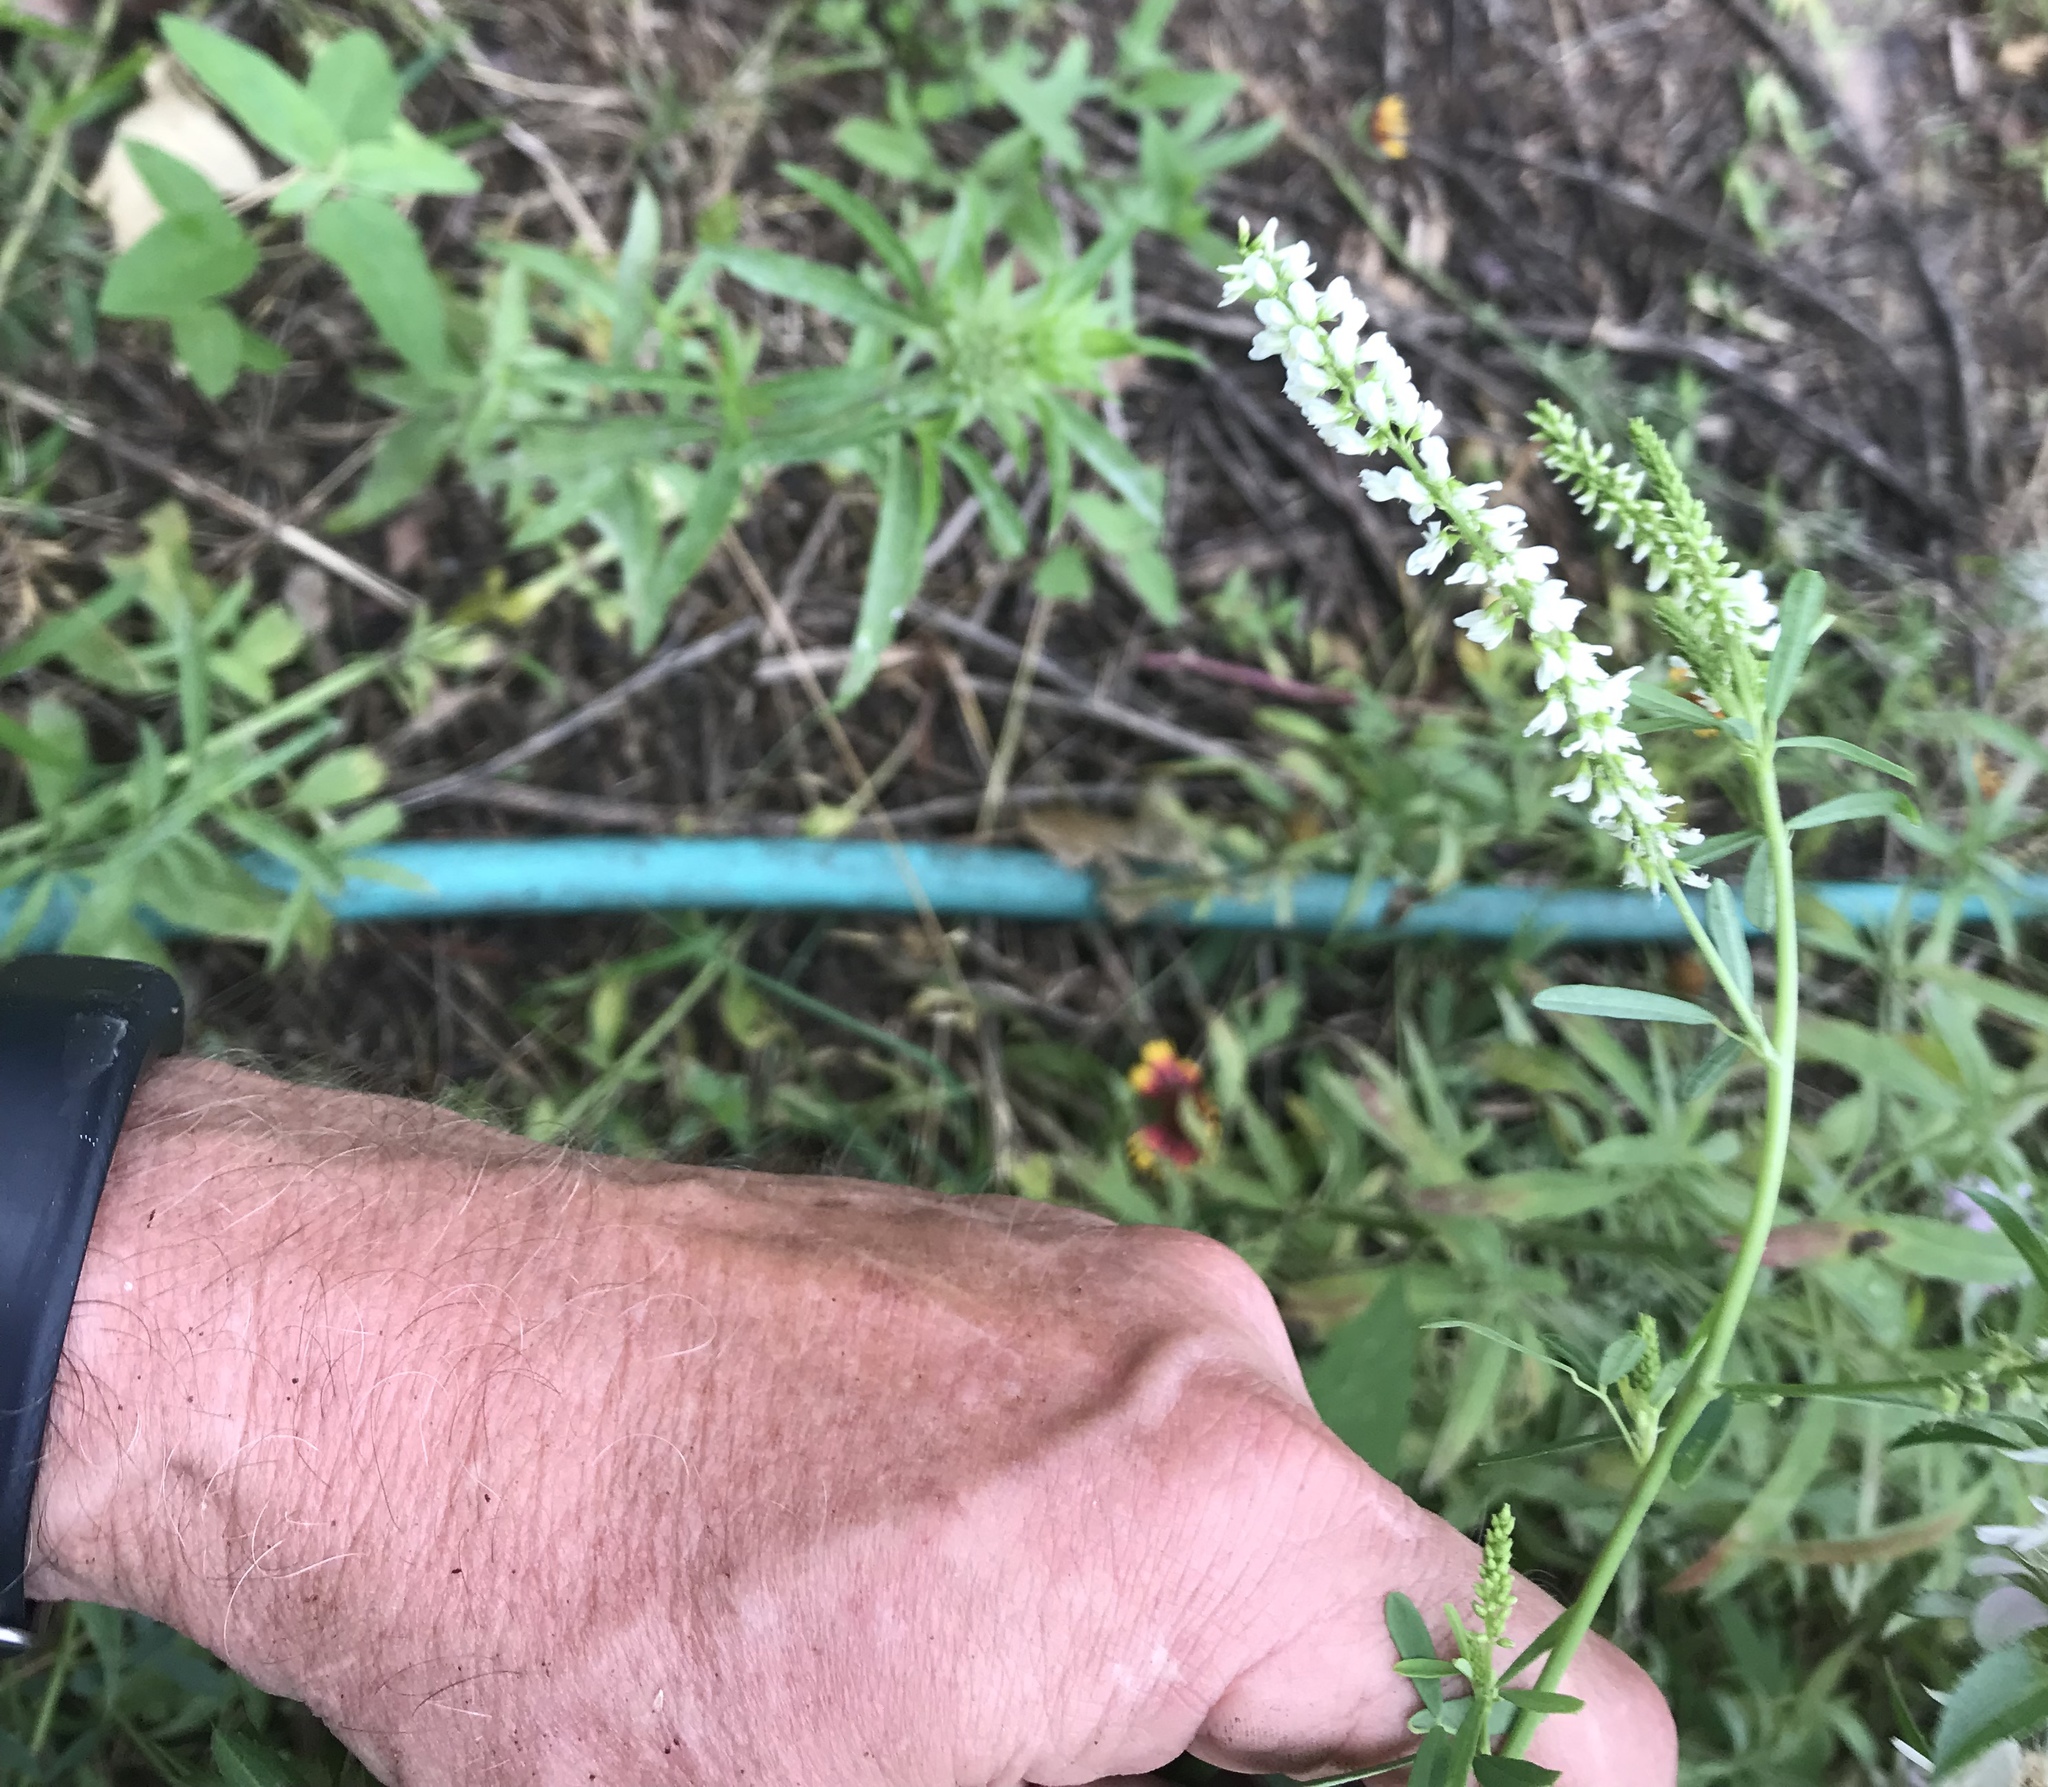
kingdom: Plantae
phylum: Tracheophyta
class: Magnoliopsida
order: Fabales
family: Fabaceae
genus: Melilotus
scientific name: Melilotus albus
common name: White melilot
